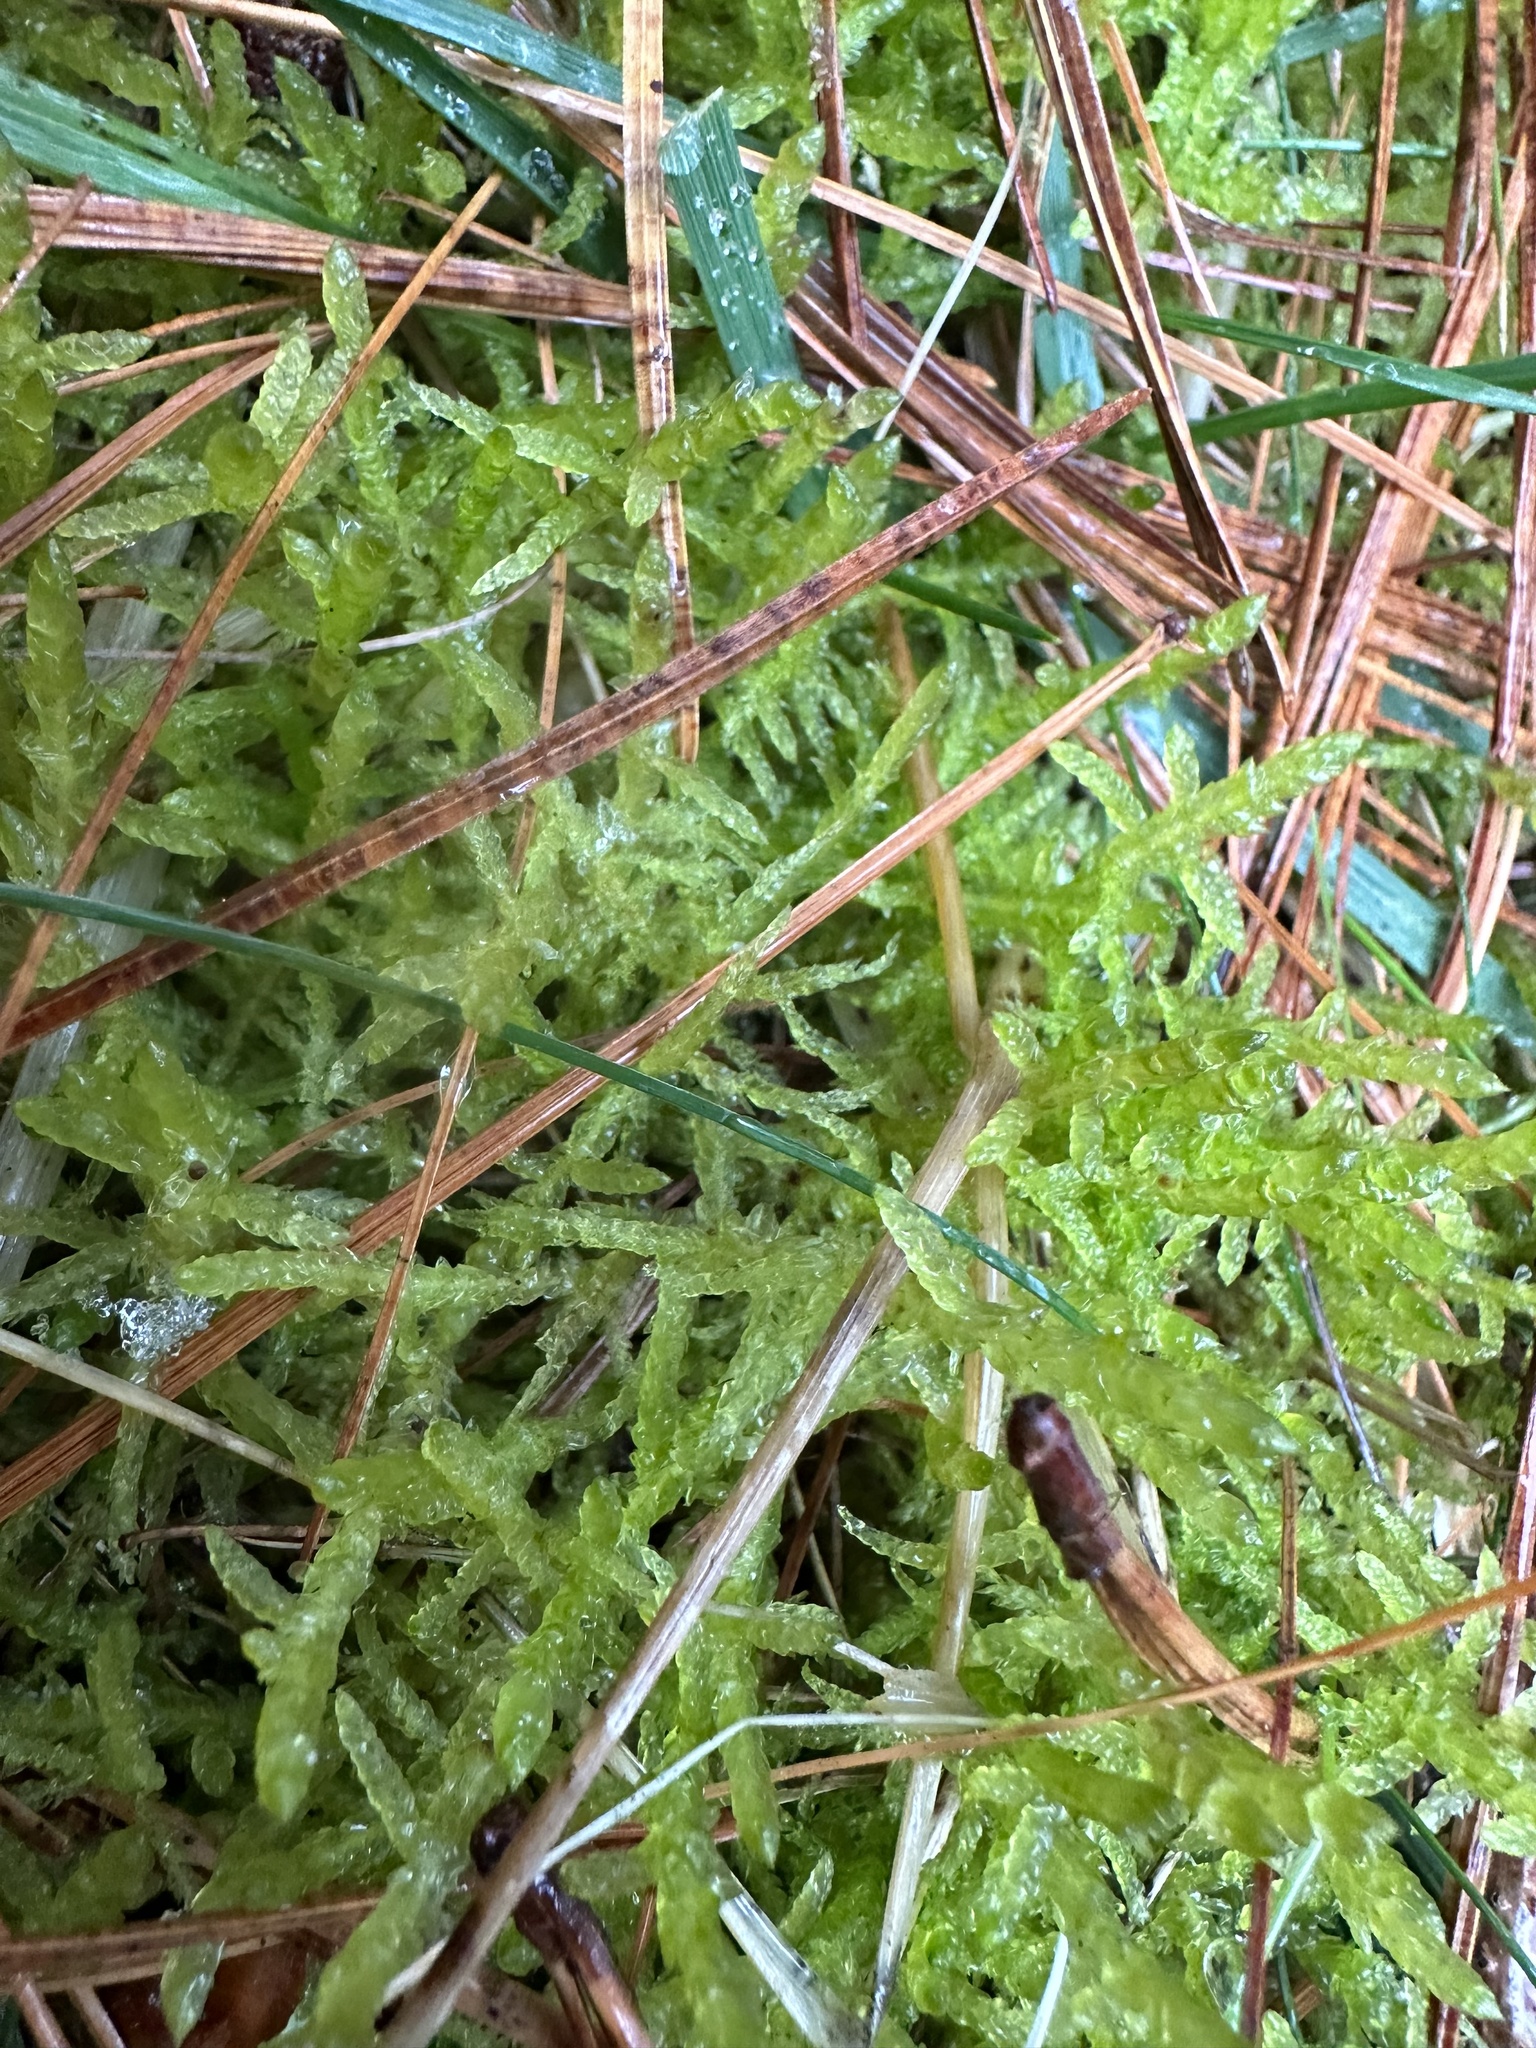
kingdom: Plantae
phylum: Bryophyta
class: Bryopsida
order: Hypnales
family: Brachytheciaceae
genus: Pseudoscleropodium
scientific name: Pseudoscleropodium purum
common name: Neat feather-moss
